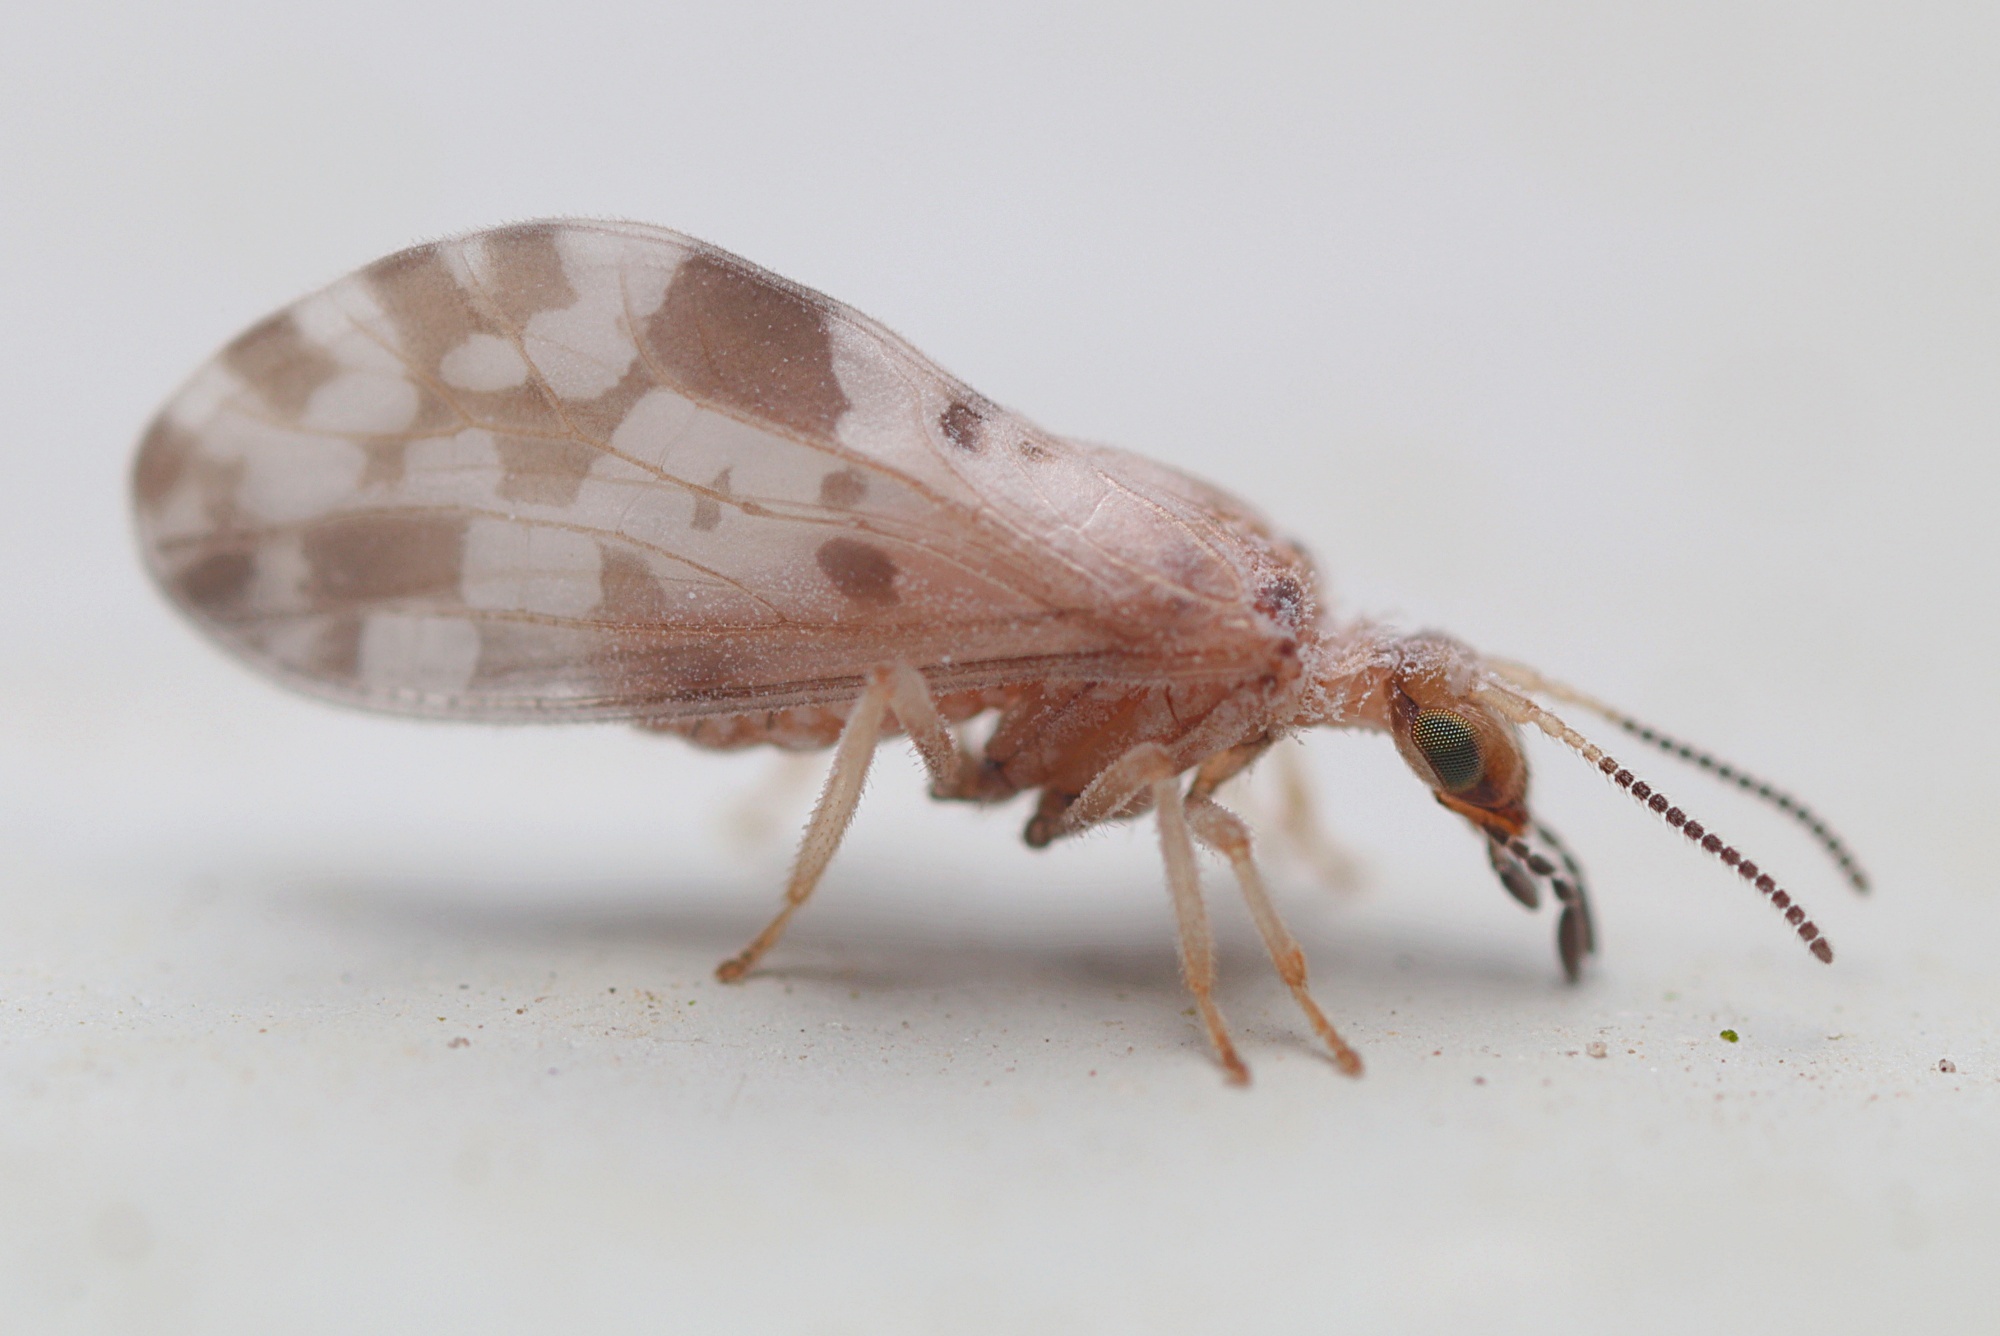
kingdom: Animalia
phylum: Arthropoda
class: Insecta
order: Neuroptera
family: Coniopterygidae
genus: Heteroconis
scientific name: Heteroconis ornata
